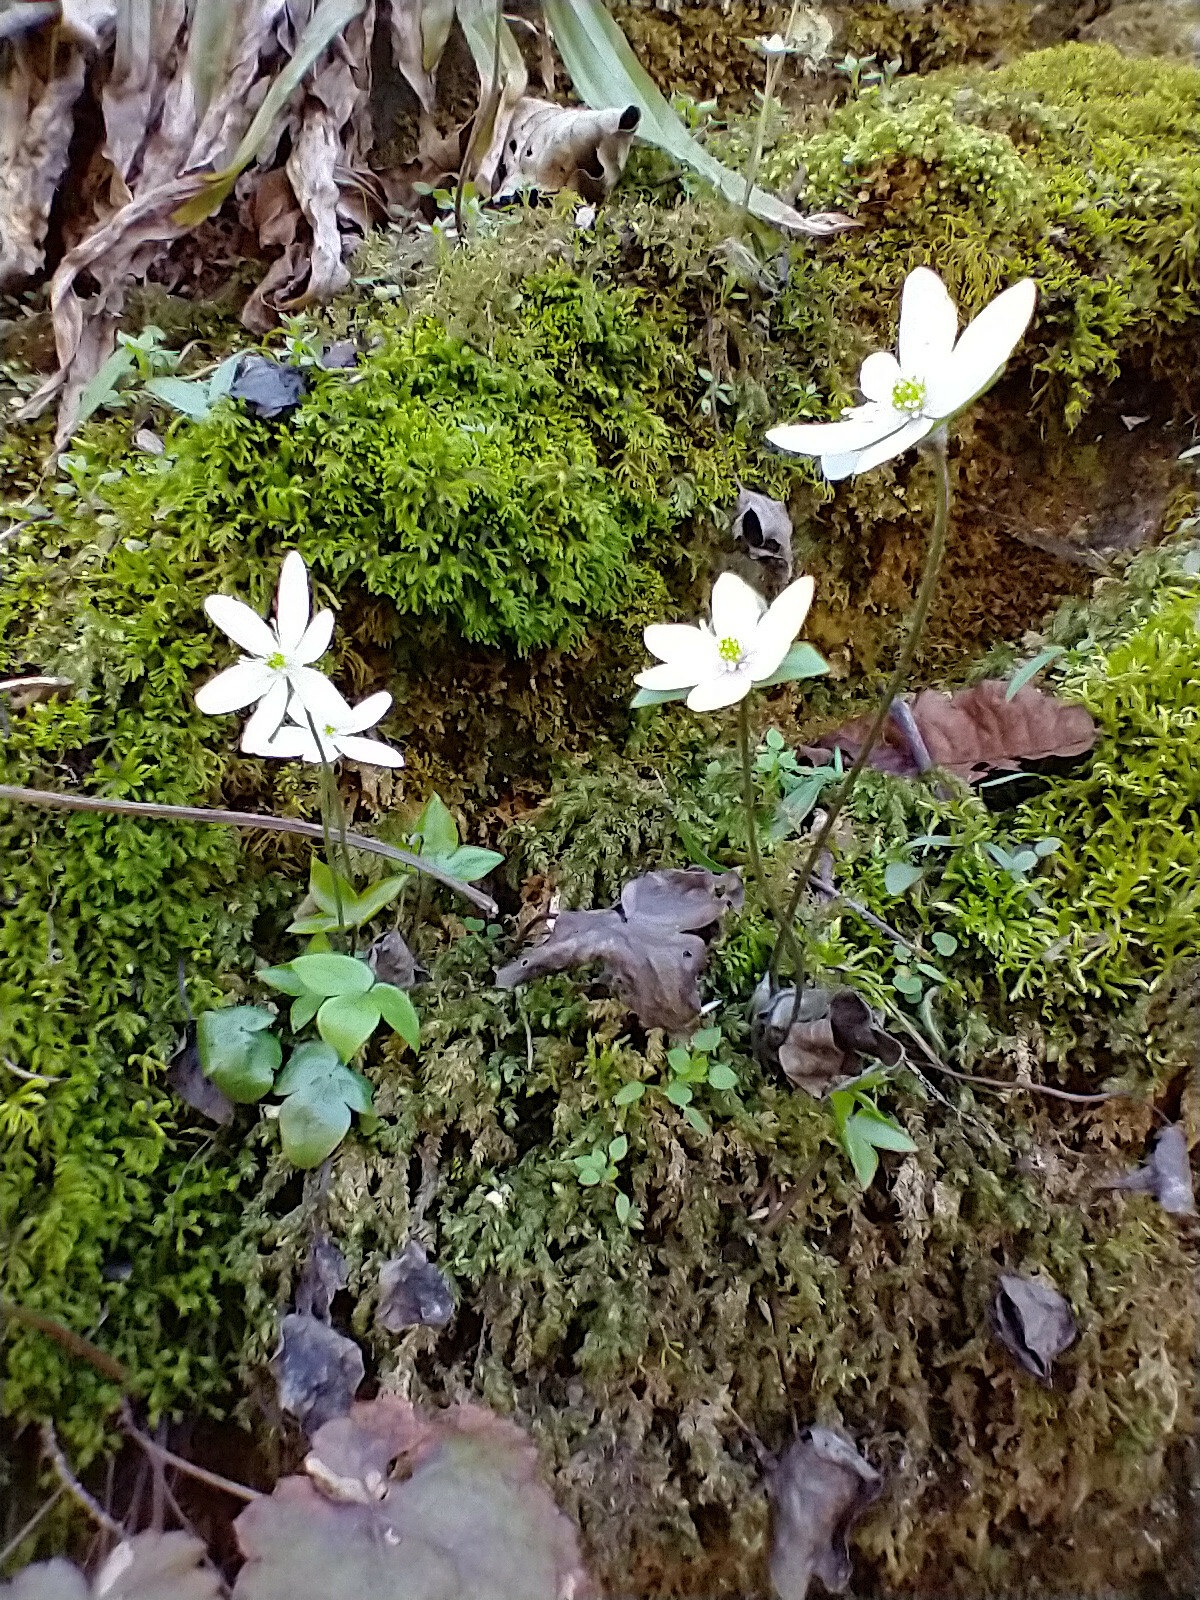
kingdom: Plantae
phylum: Tracheophyta
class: Magnoliopsida
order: Ranunculales
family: Ranunculaceae
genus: Hepatica
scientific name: Hepatica acutiloba
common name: Sharp-lobed hepatica
